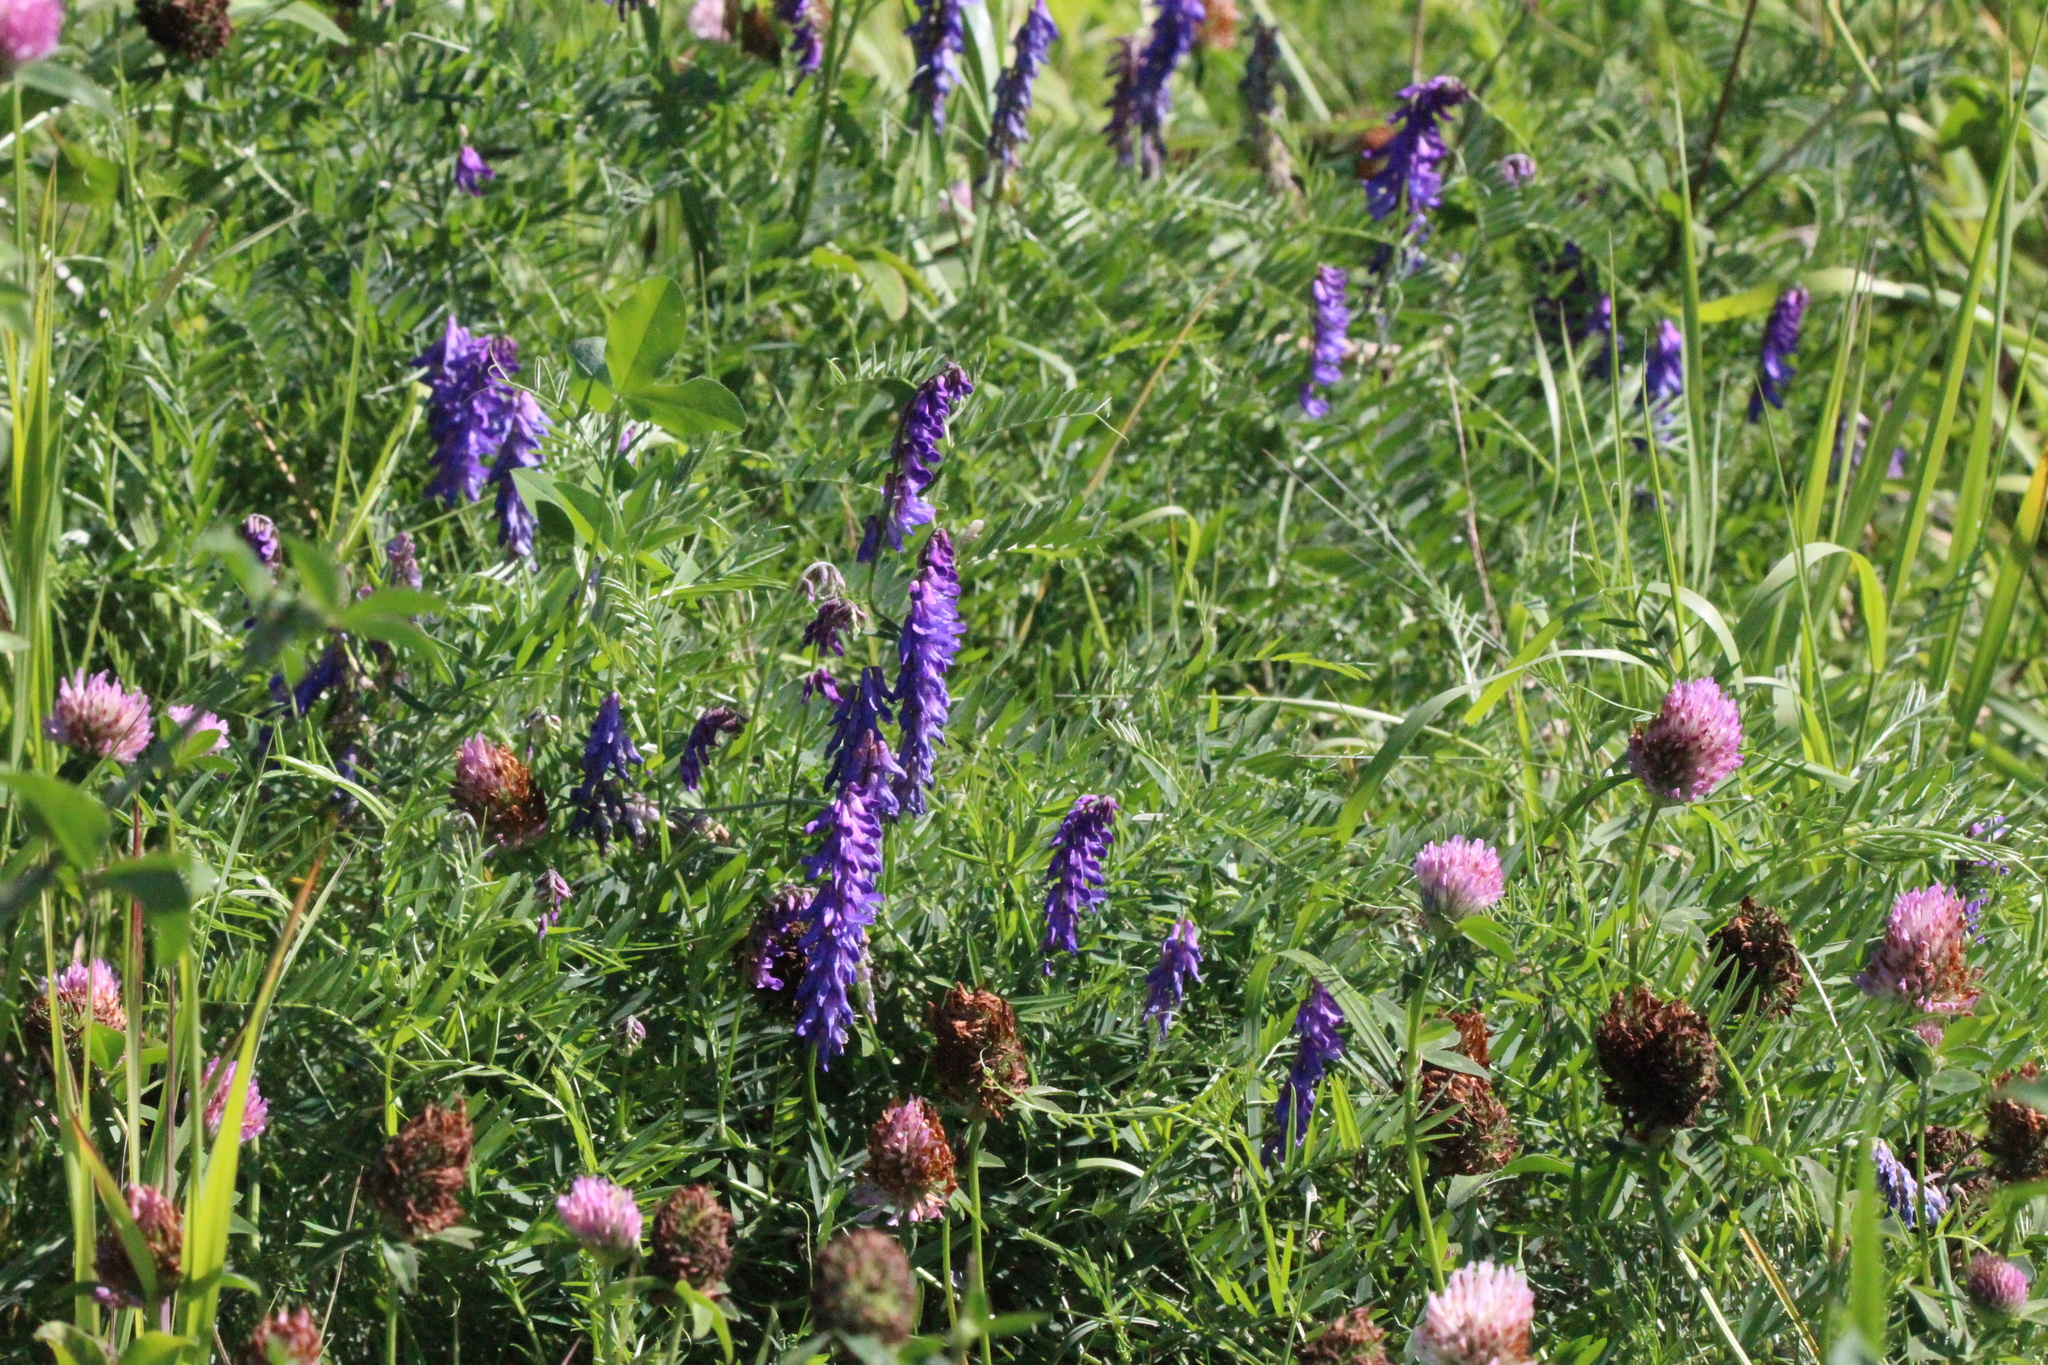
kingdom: Plantae
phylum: Tracheophyta
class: Magnoliopsida
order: Fabales
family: Fabaceae
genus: Vicia
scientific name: Vicia cracca
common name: Bird vetch
